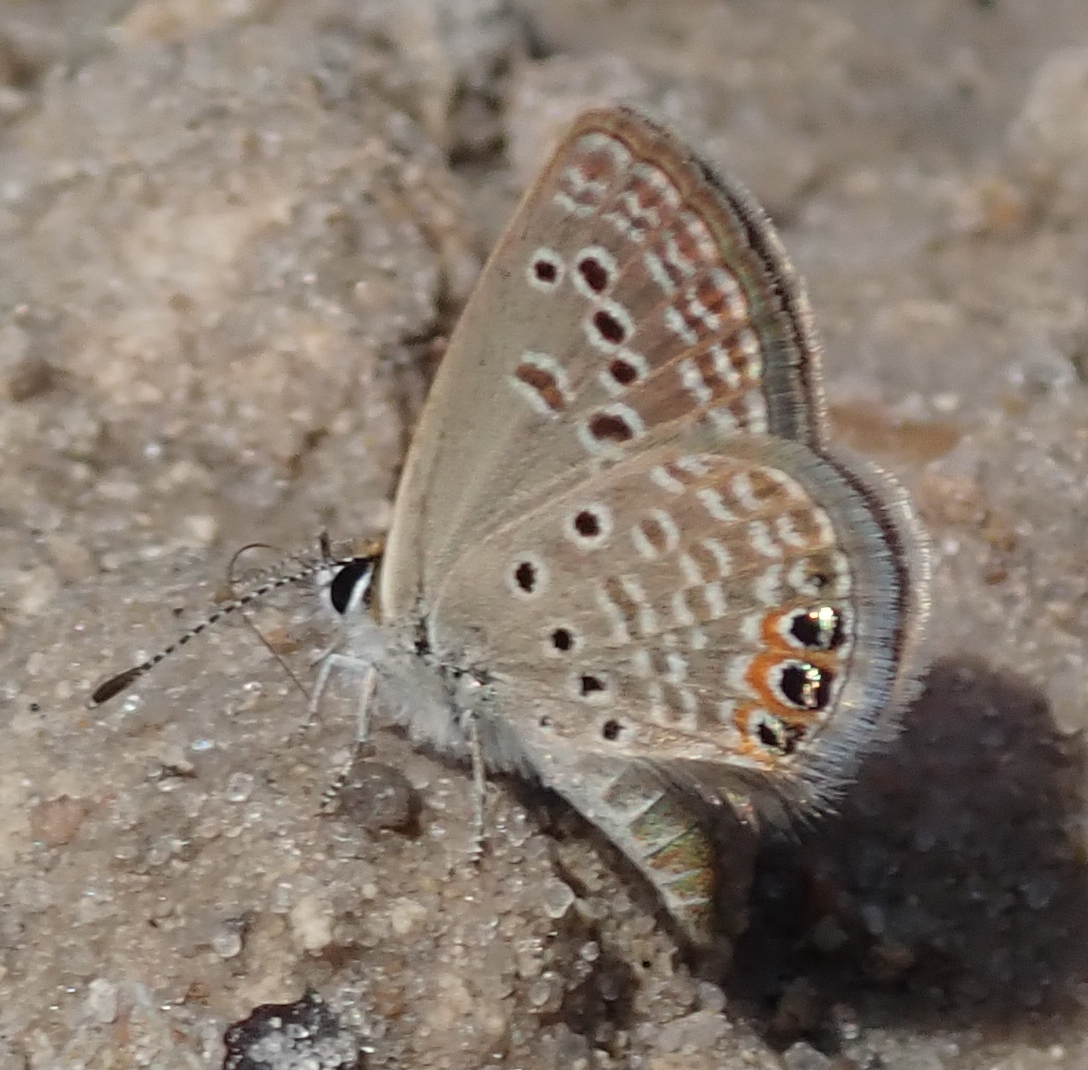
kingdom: Animalia
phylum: Arthropoda
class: Insecta
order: Lepidoptera
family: Lycaenidae
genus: Freyeria
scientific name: Freyeria trochylus
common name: Grass jewel
